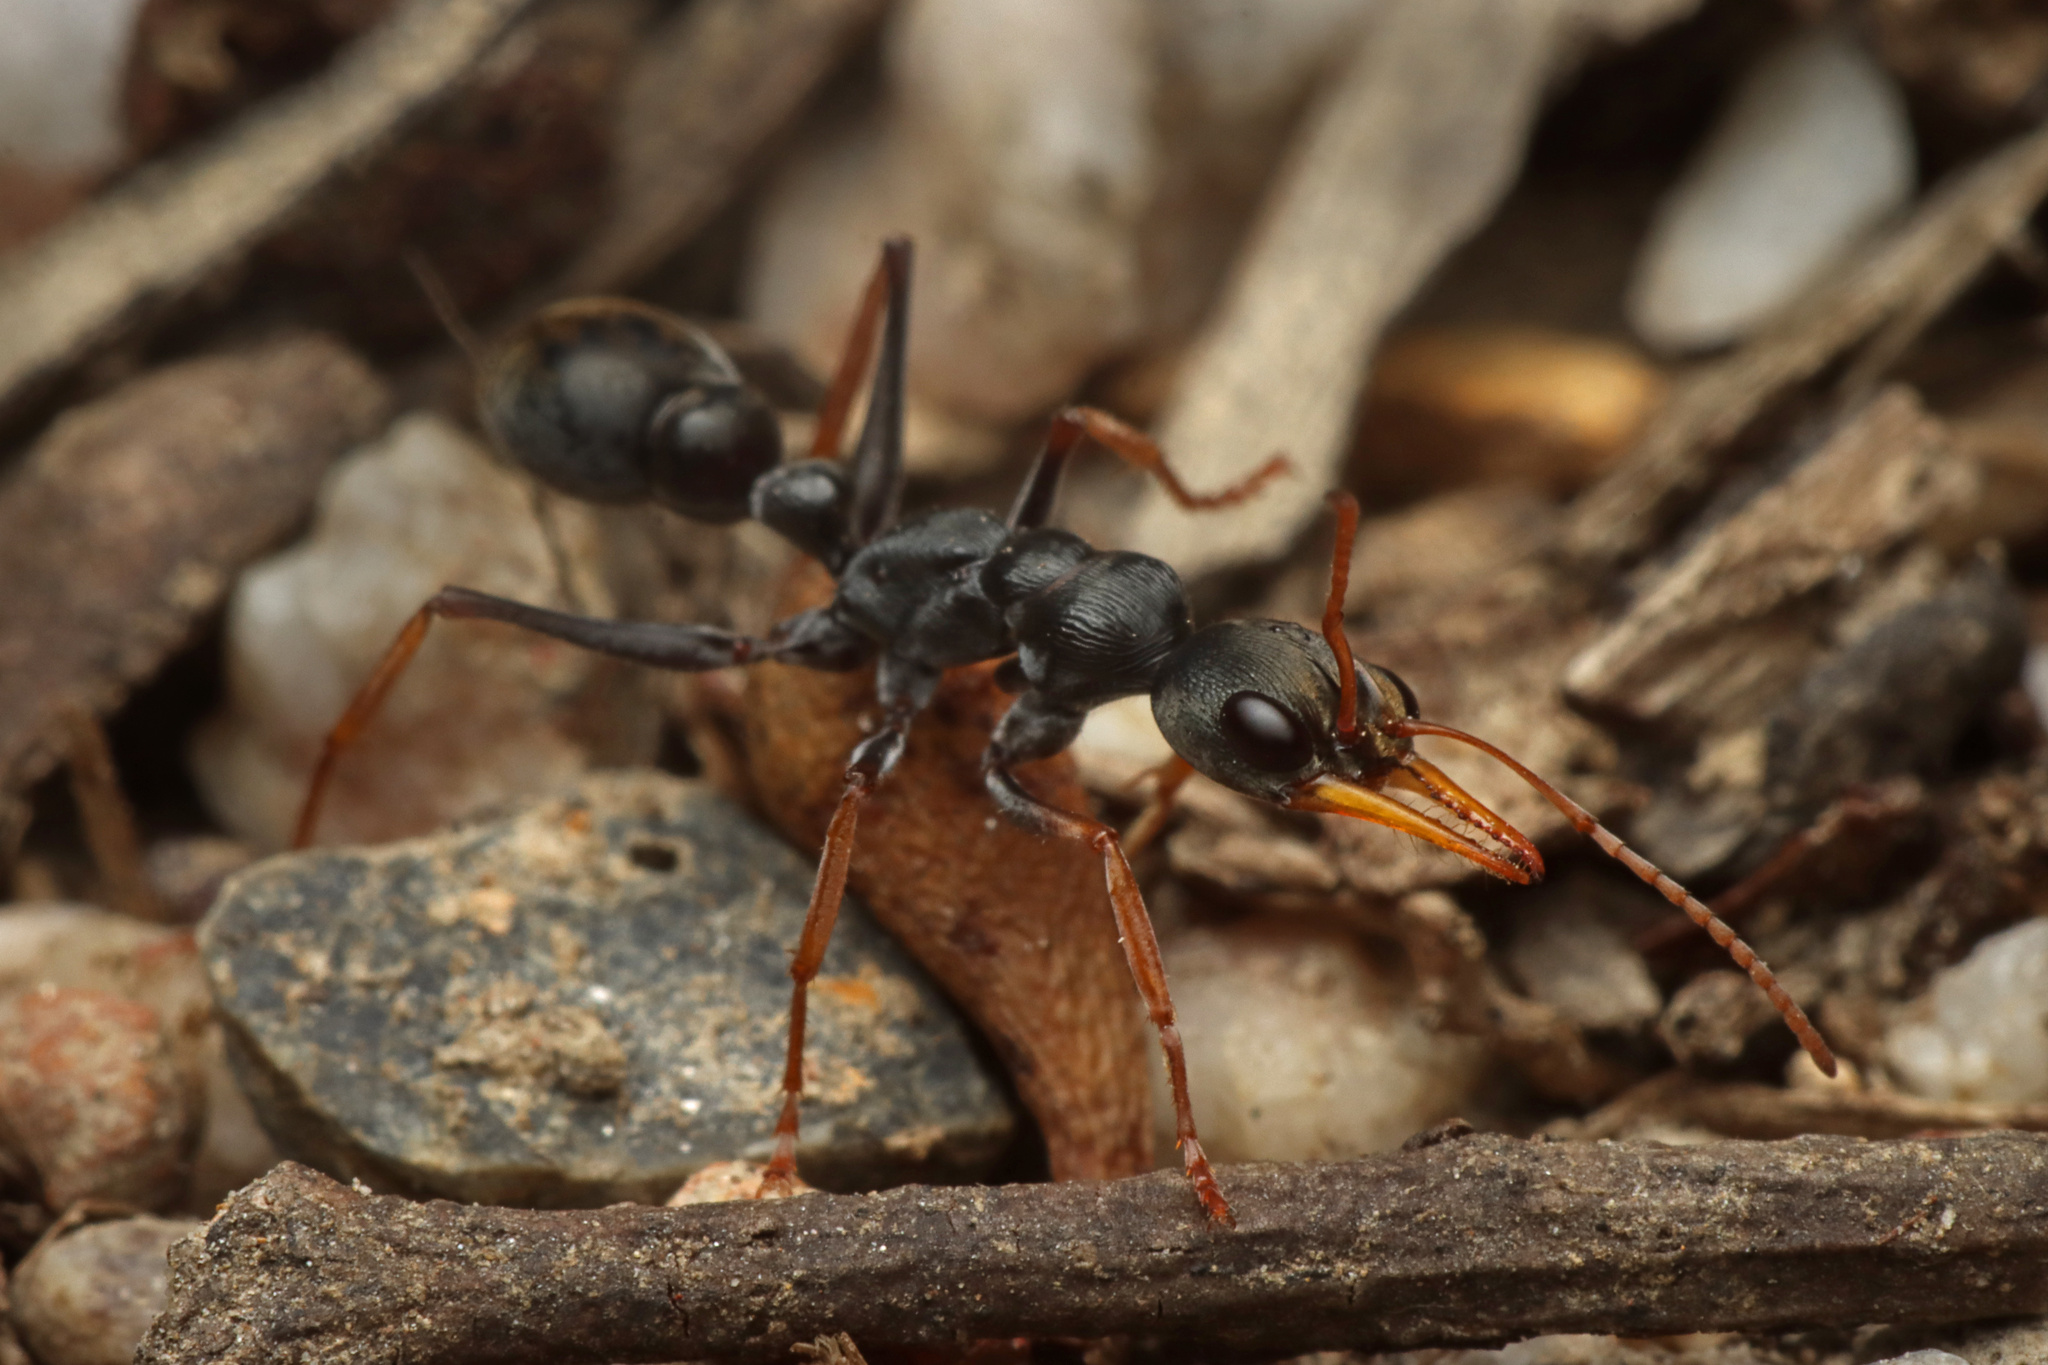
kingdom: Animalia
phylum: Arthropoda
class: Insecta
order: Hymenoptera
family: Formicidae
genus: Myrmecia
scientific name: Myrmecia pilosula
